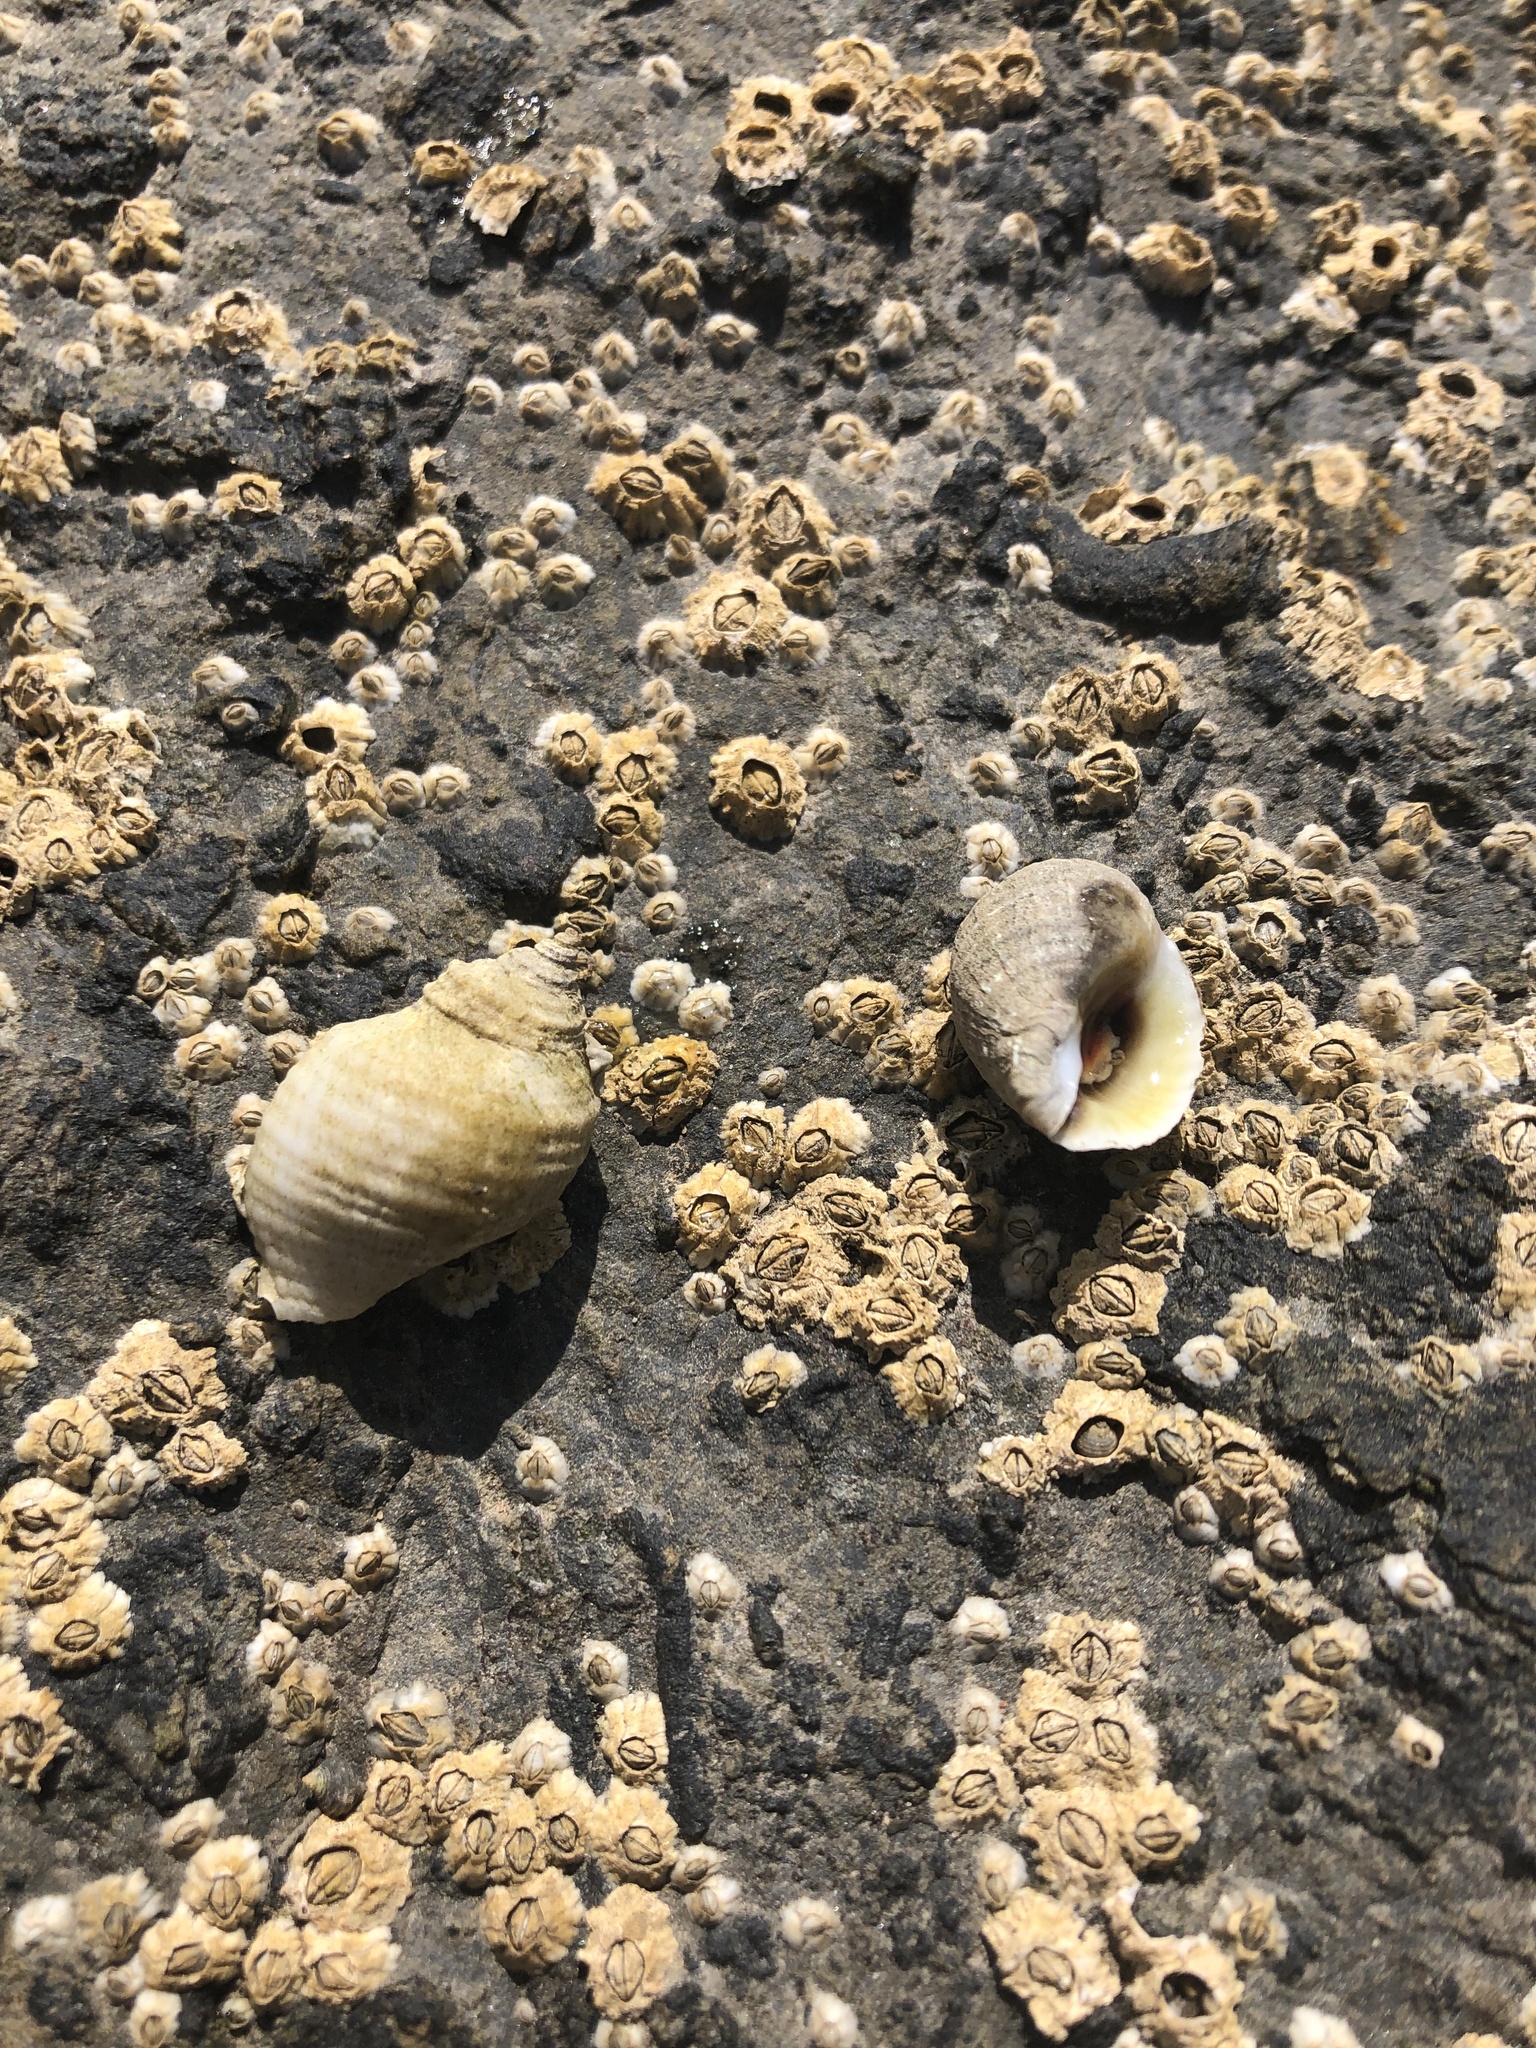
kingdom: Animalia
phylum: Mollusca
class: Gastropoda
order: Neogastropoda
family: Muricidae
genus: Nucella
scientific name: Nucella lapillus
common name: Dog whelk
